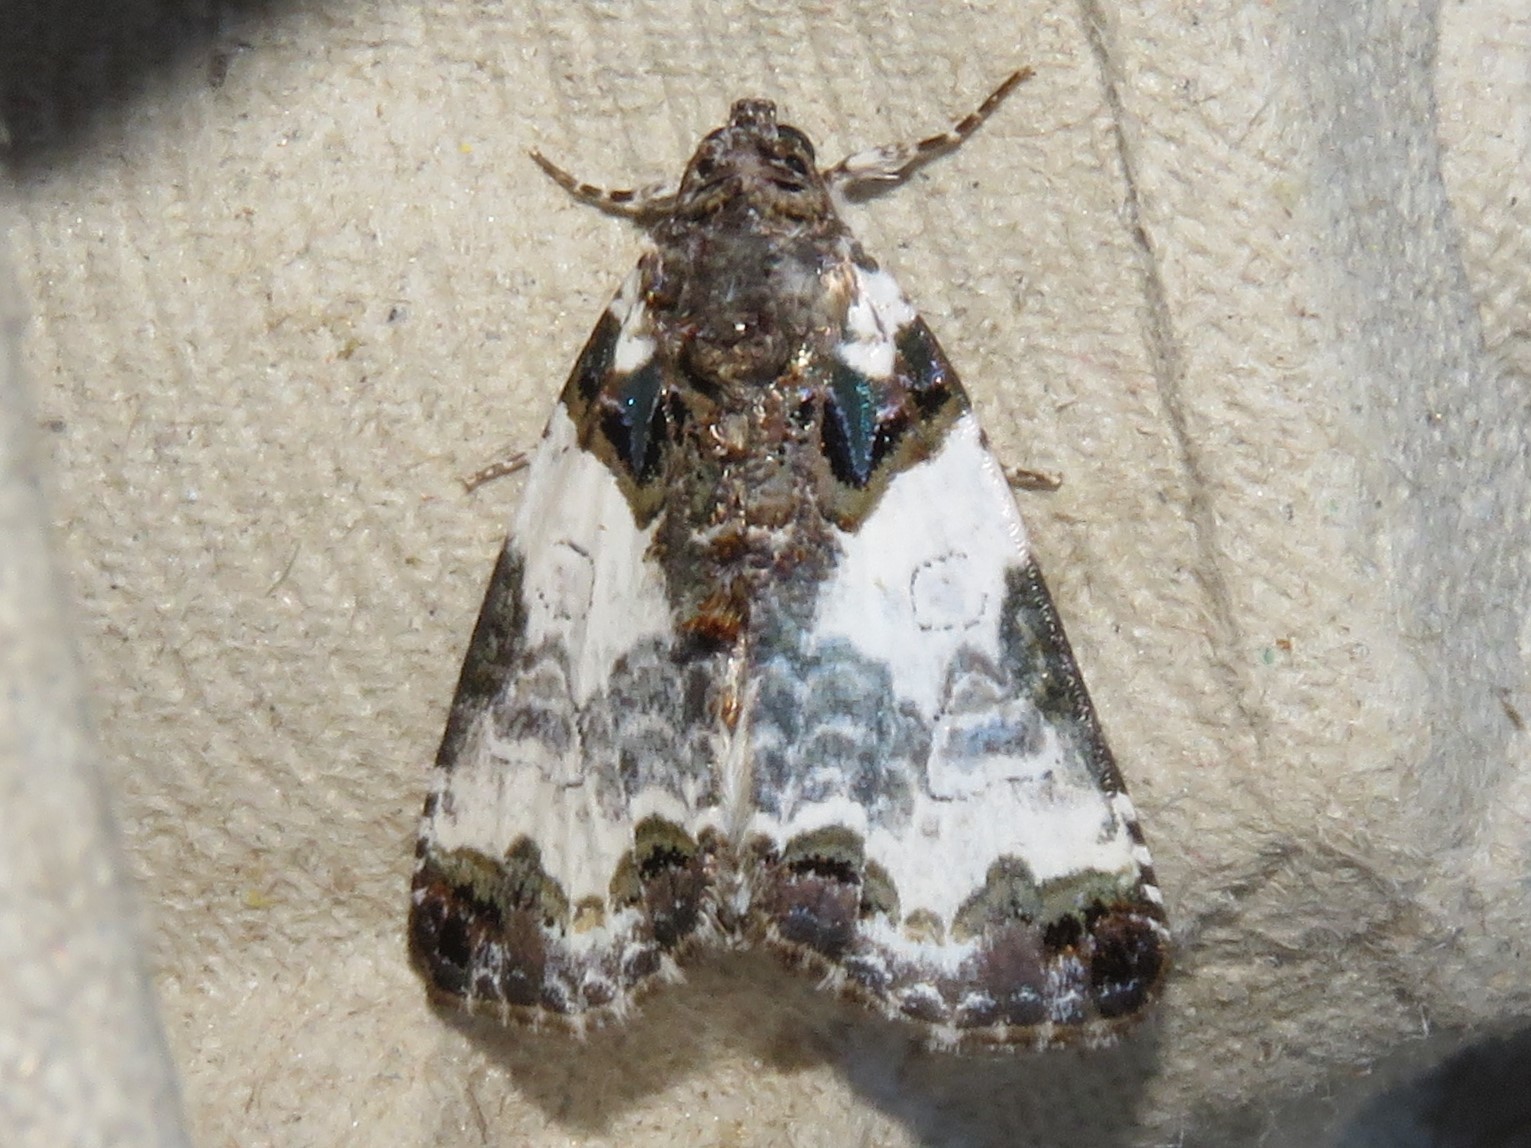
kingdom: Animalia
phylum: Arthropoda
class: Insecta
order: Lepidoptera
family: Noctuidae
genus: Cerma
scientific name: Cerma cerintha
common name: Tufted bird-dropping moth
